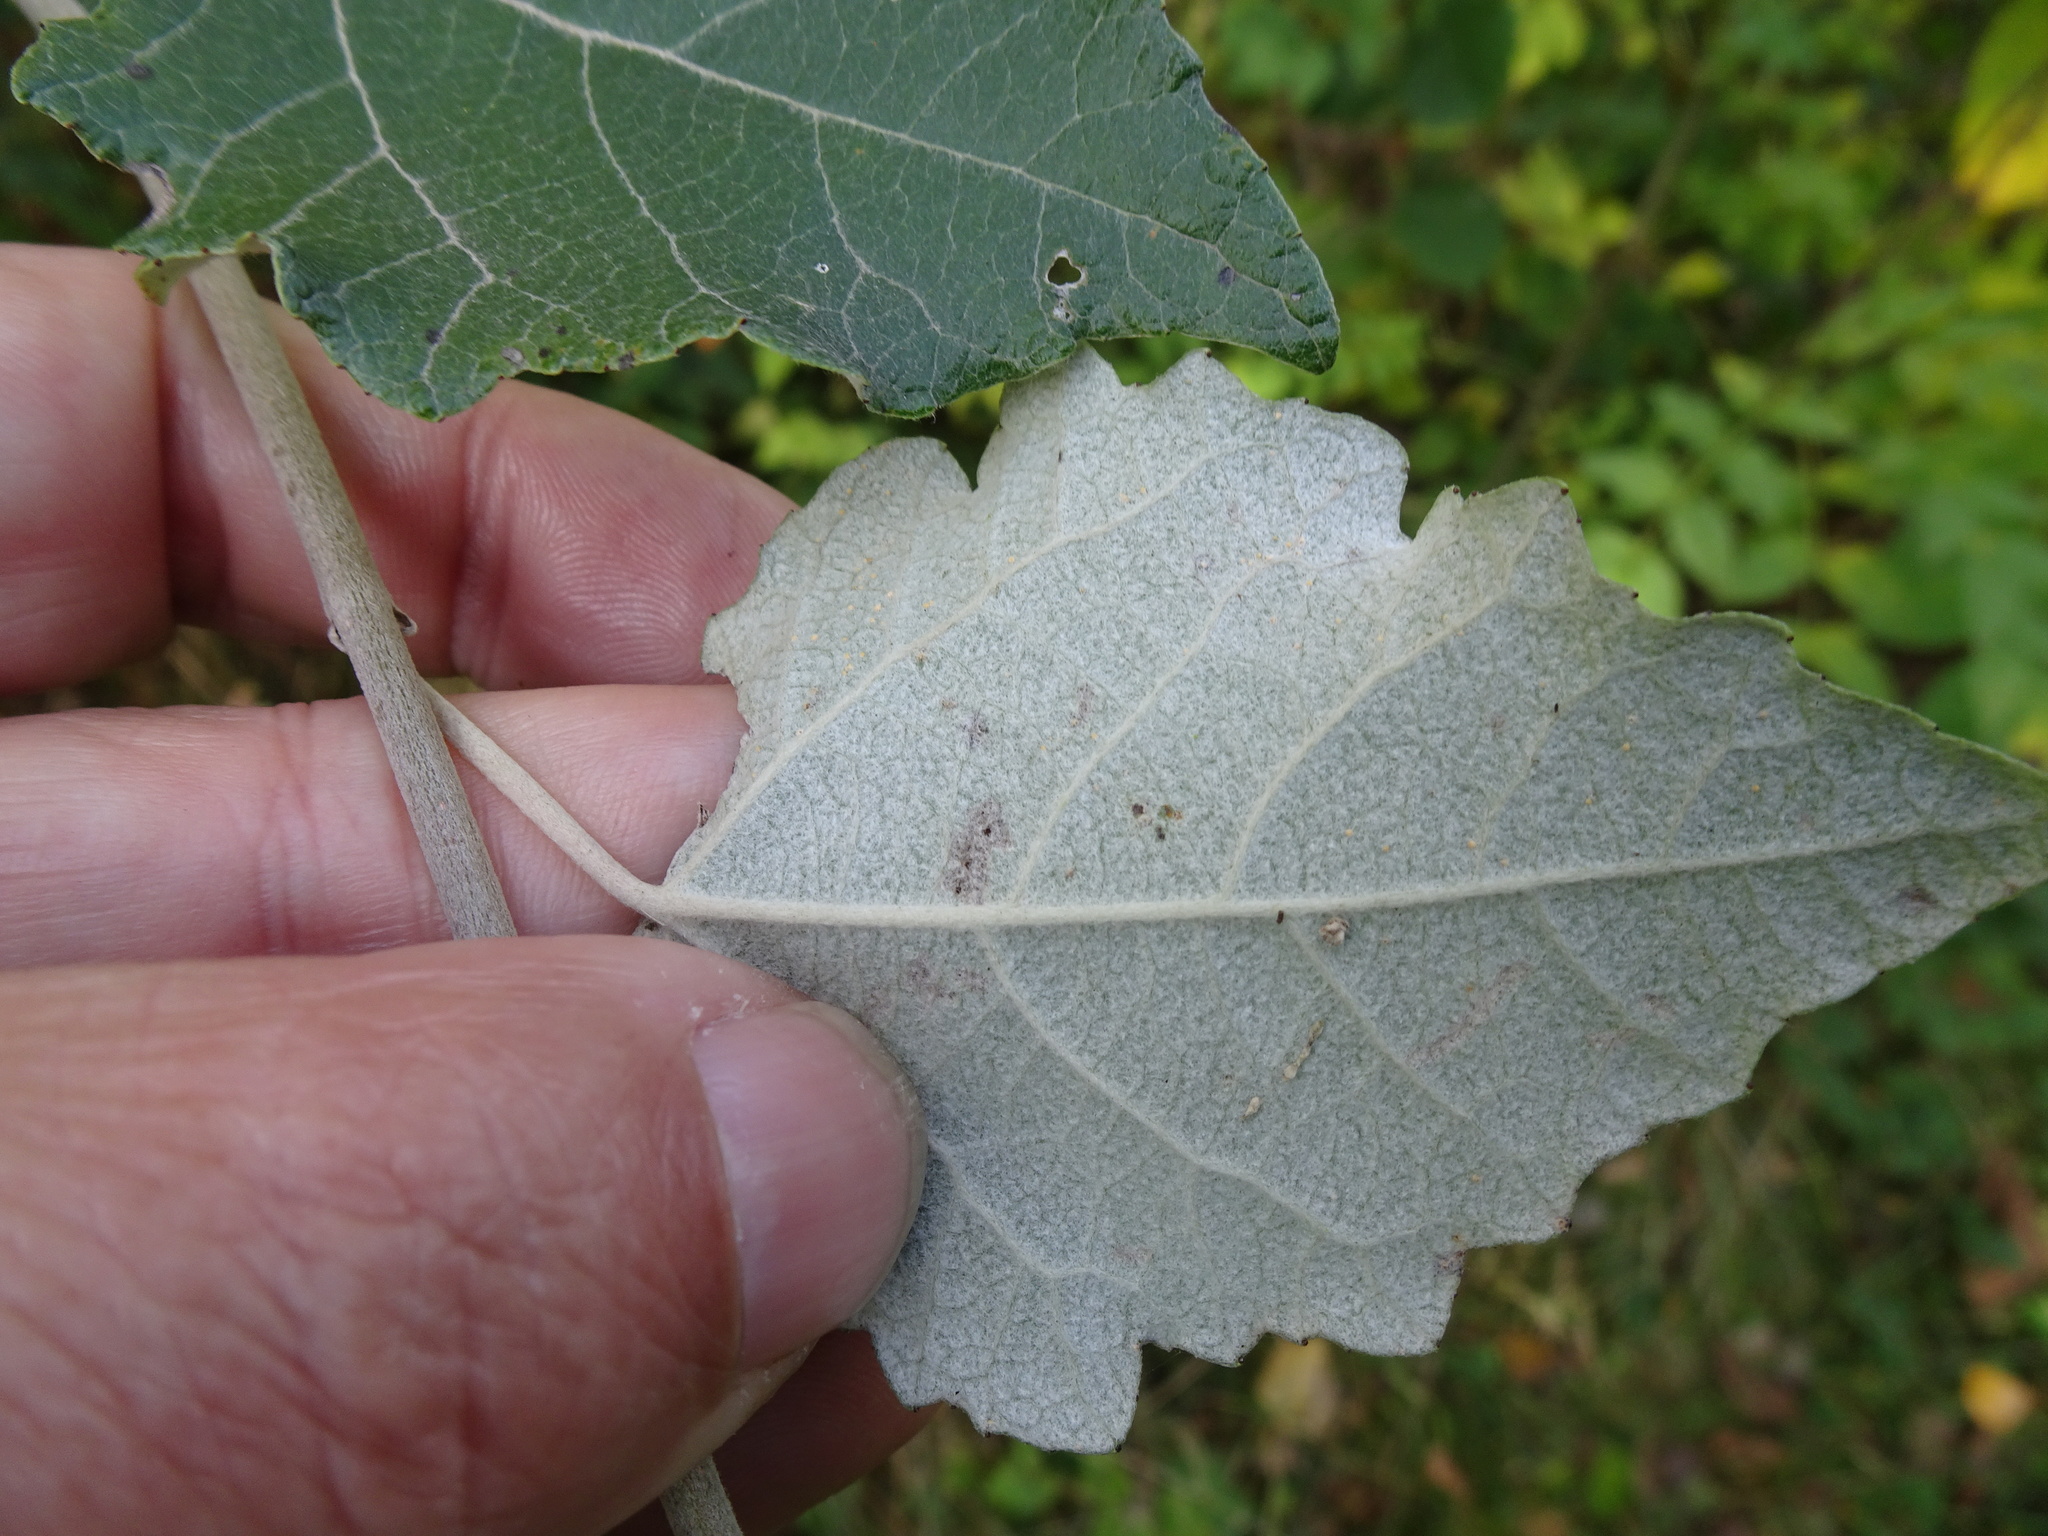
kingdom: Plantae
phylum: Tracheophyta
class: Magnoliopsida
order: Malpighiales
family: Salicaceae
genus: Populus
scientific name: Populus alba
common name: White poplar
